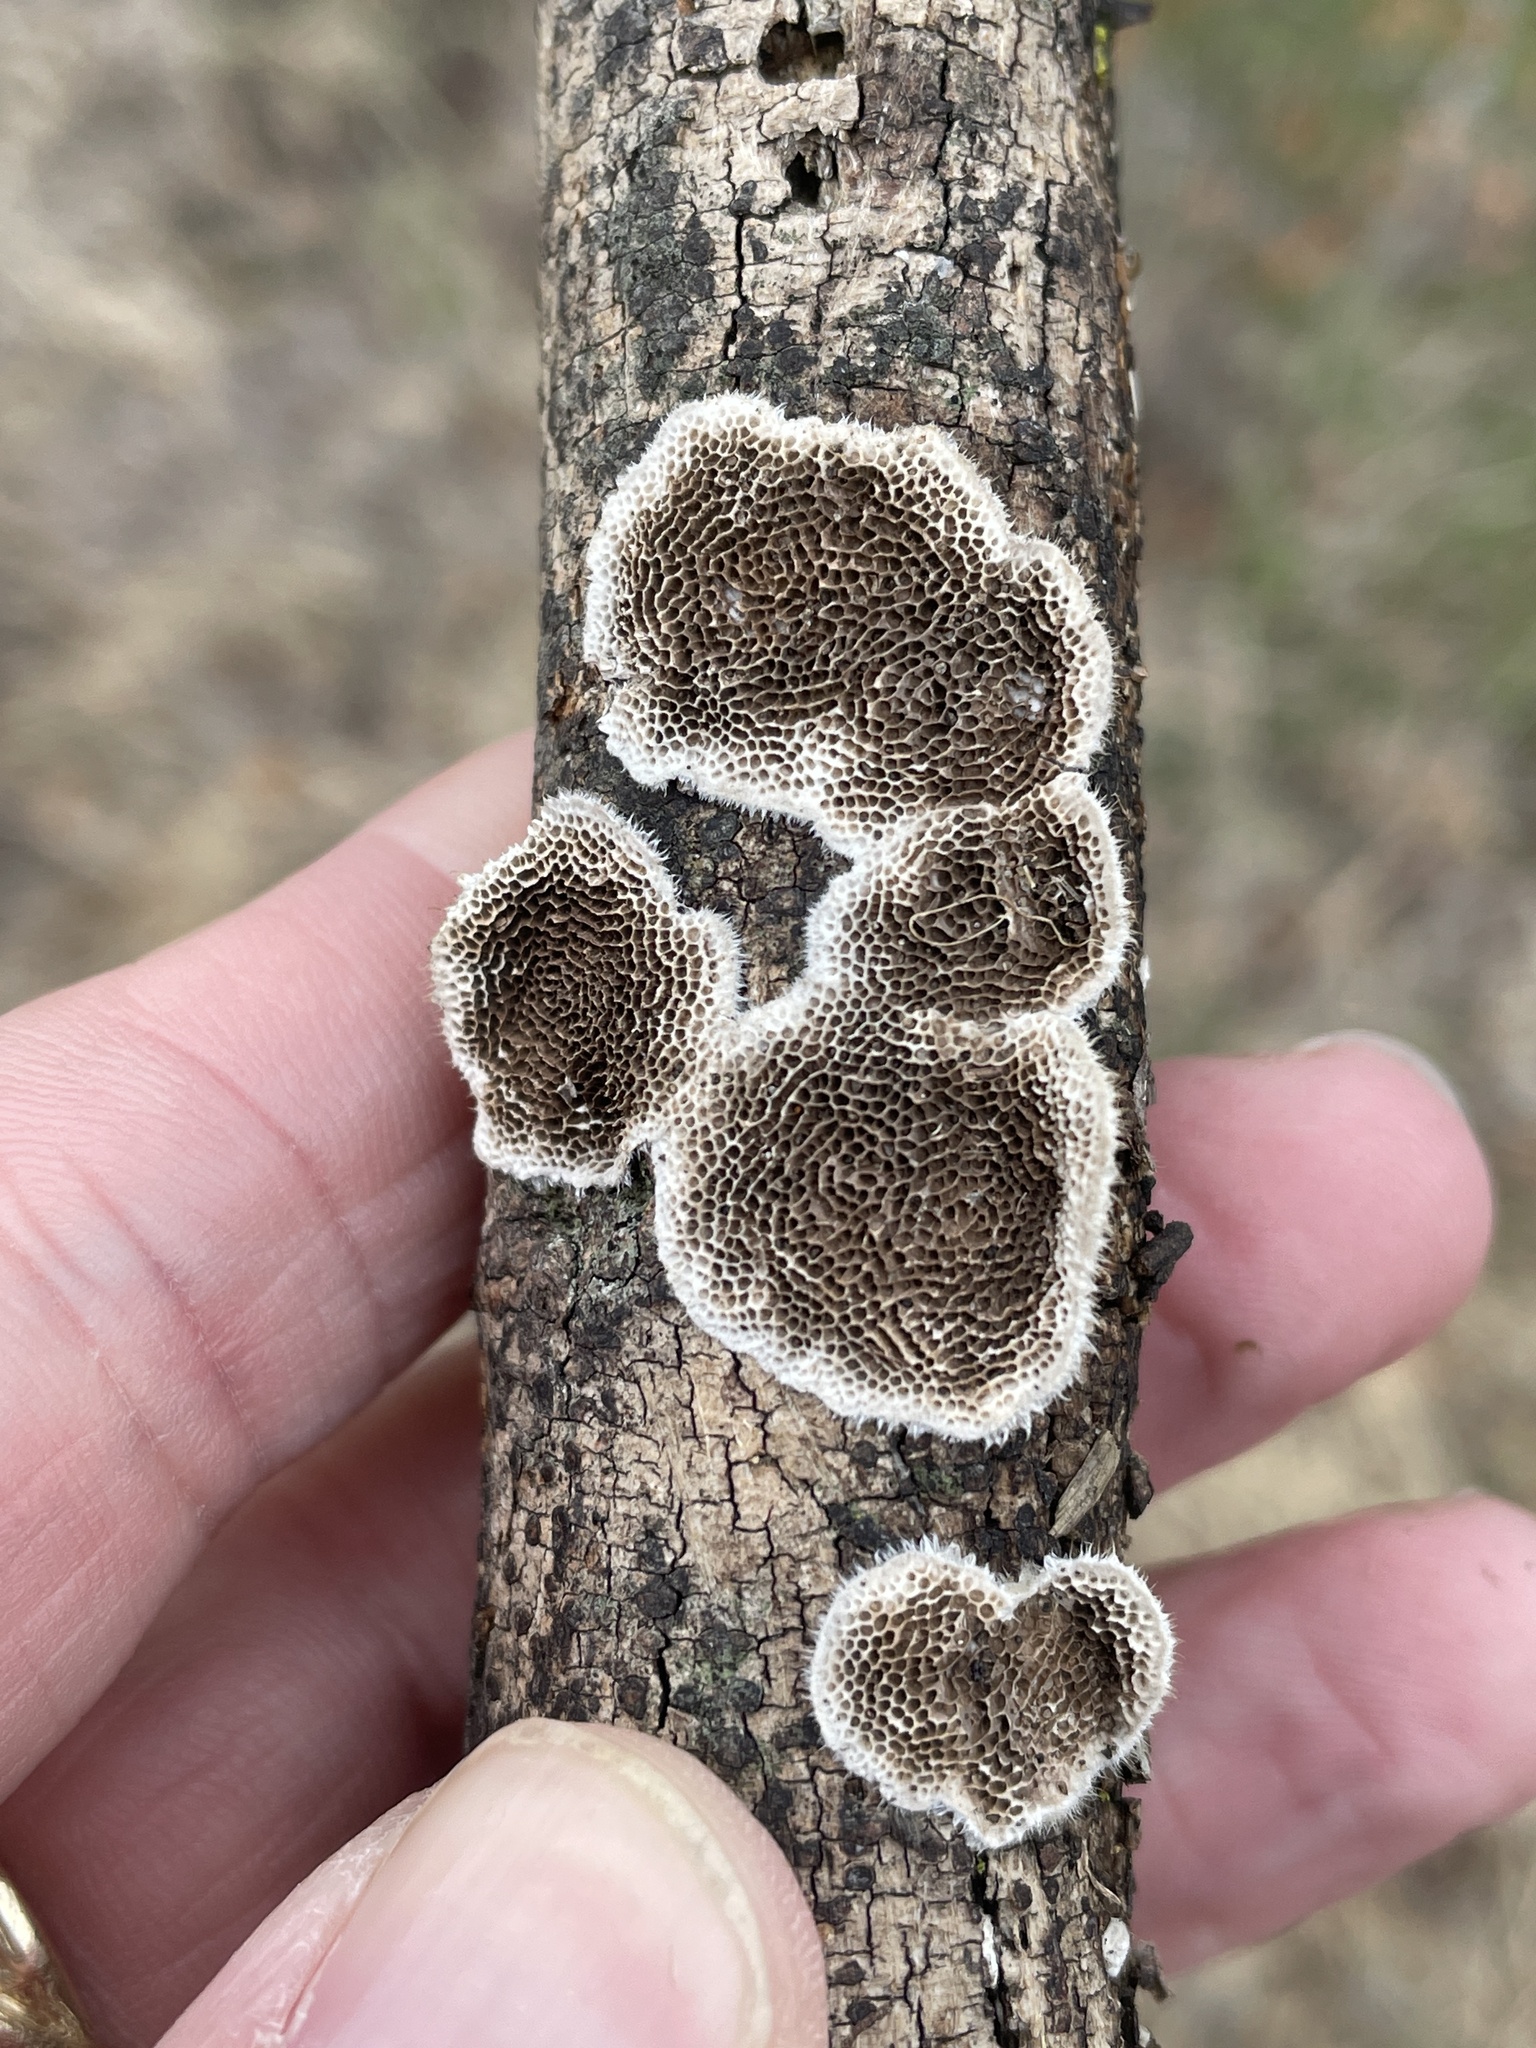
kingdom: Fungi
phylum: Basidiomycota
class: Agaricomycetes
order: Polyporales
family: Polyporaceae
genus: Trametes
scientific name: Trametes villosa
